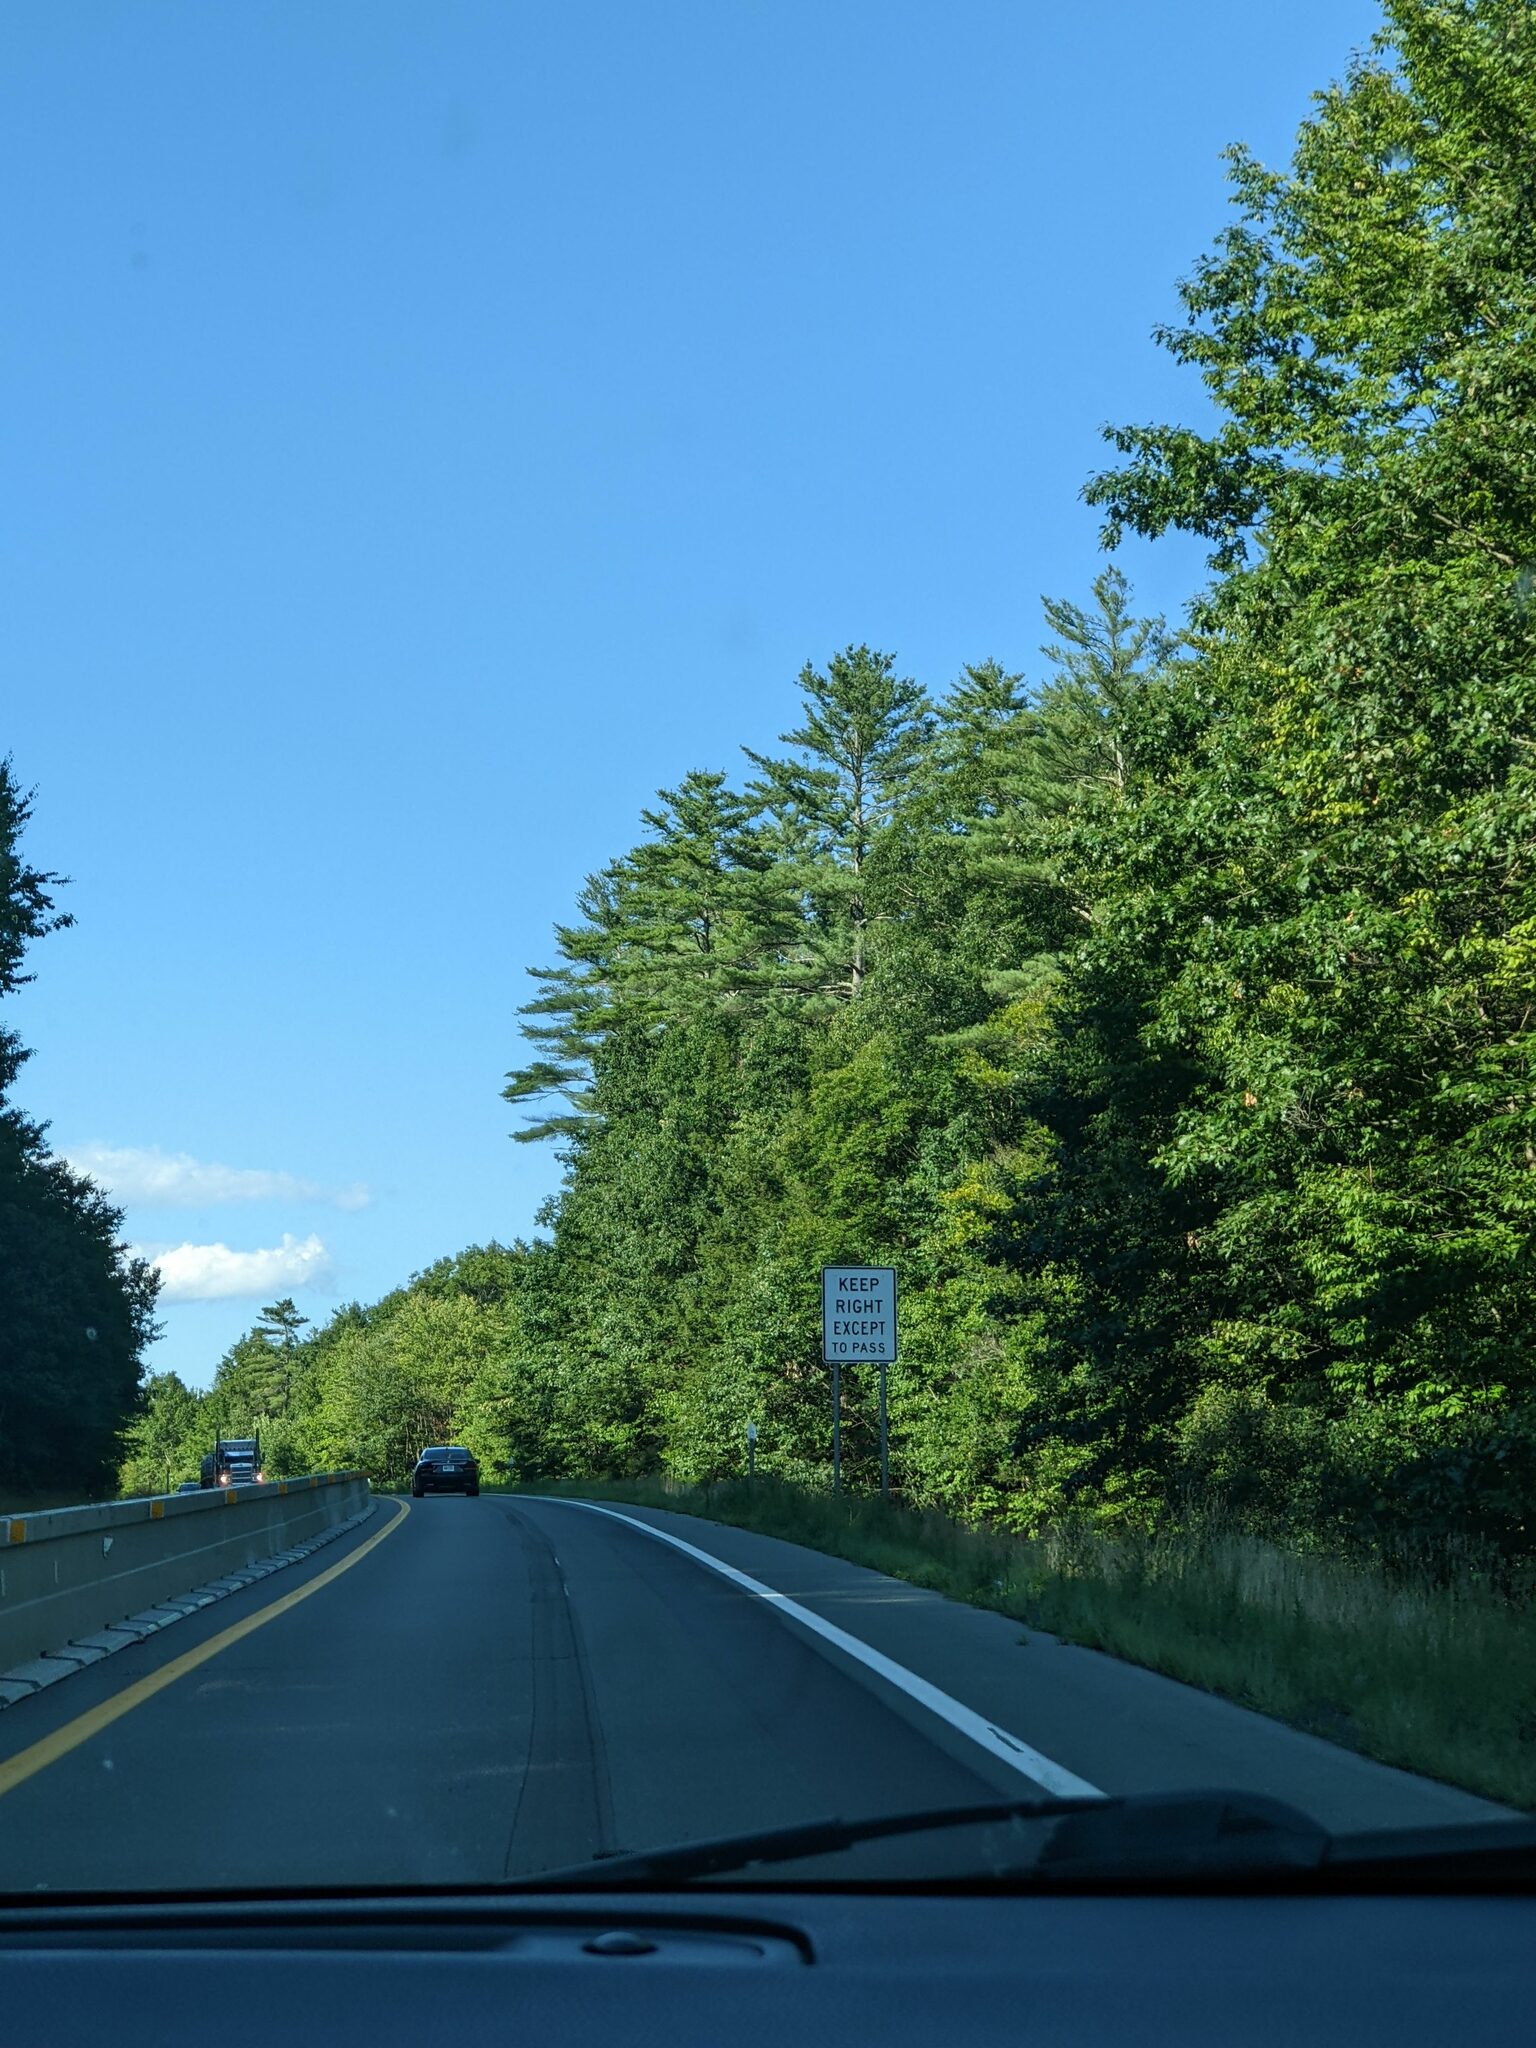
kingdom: Plantae
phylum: Tracheophyta
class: Pinopsida
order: Pinales
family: Pinaceae
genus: Pinus
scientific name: Pinus strobus
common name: Weymouth pine
